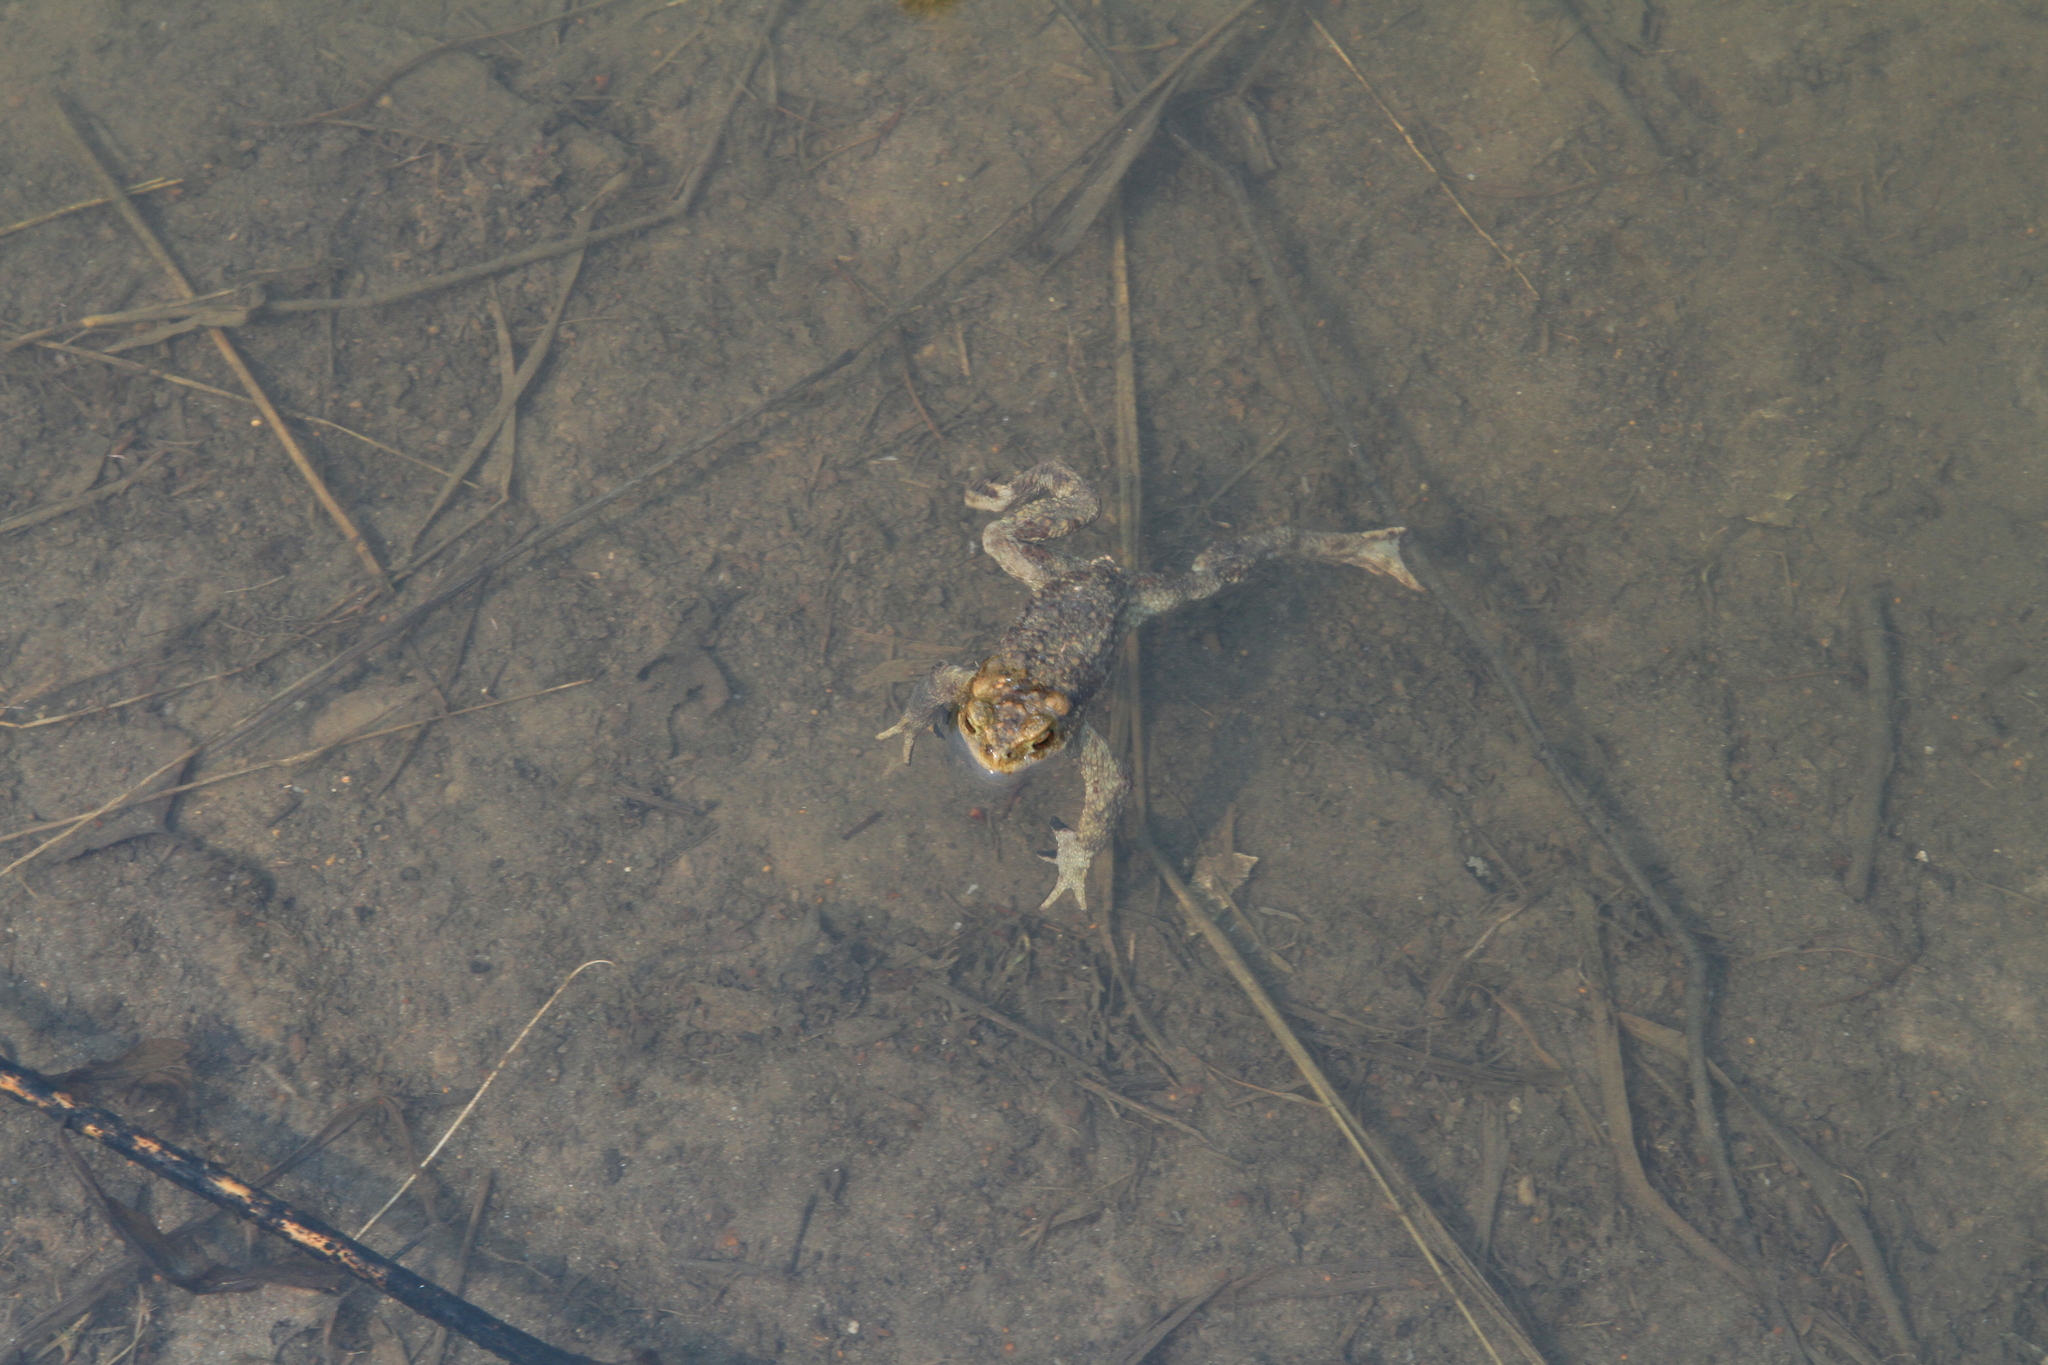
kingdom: Animalia
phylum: Chordata
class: Amphibia
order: Anura
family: Bufonidae
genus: Bufo
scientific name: Bufo bufo
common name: Common toad
